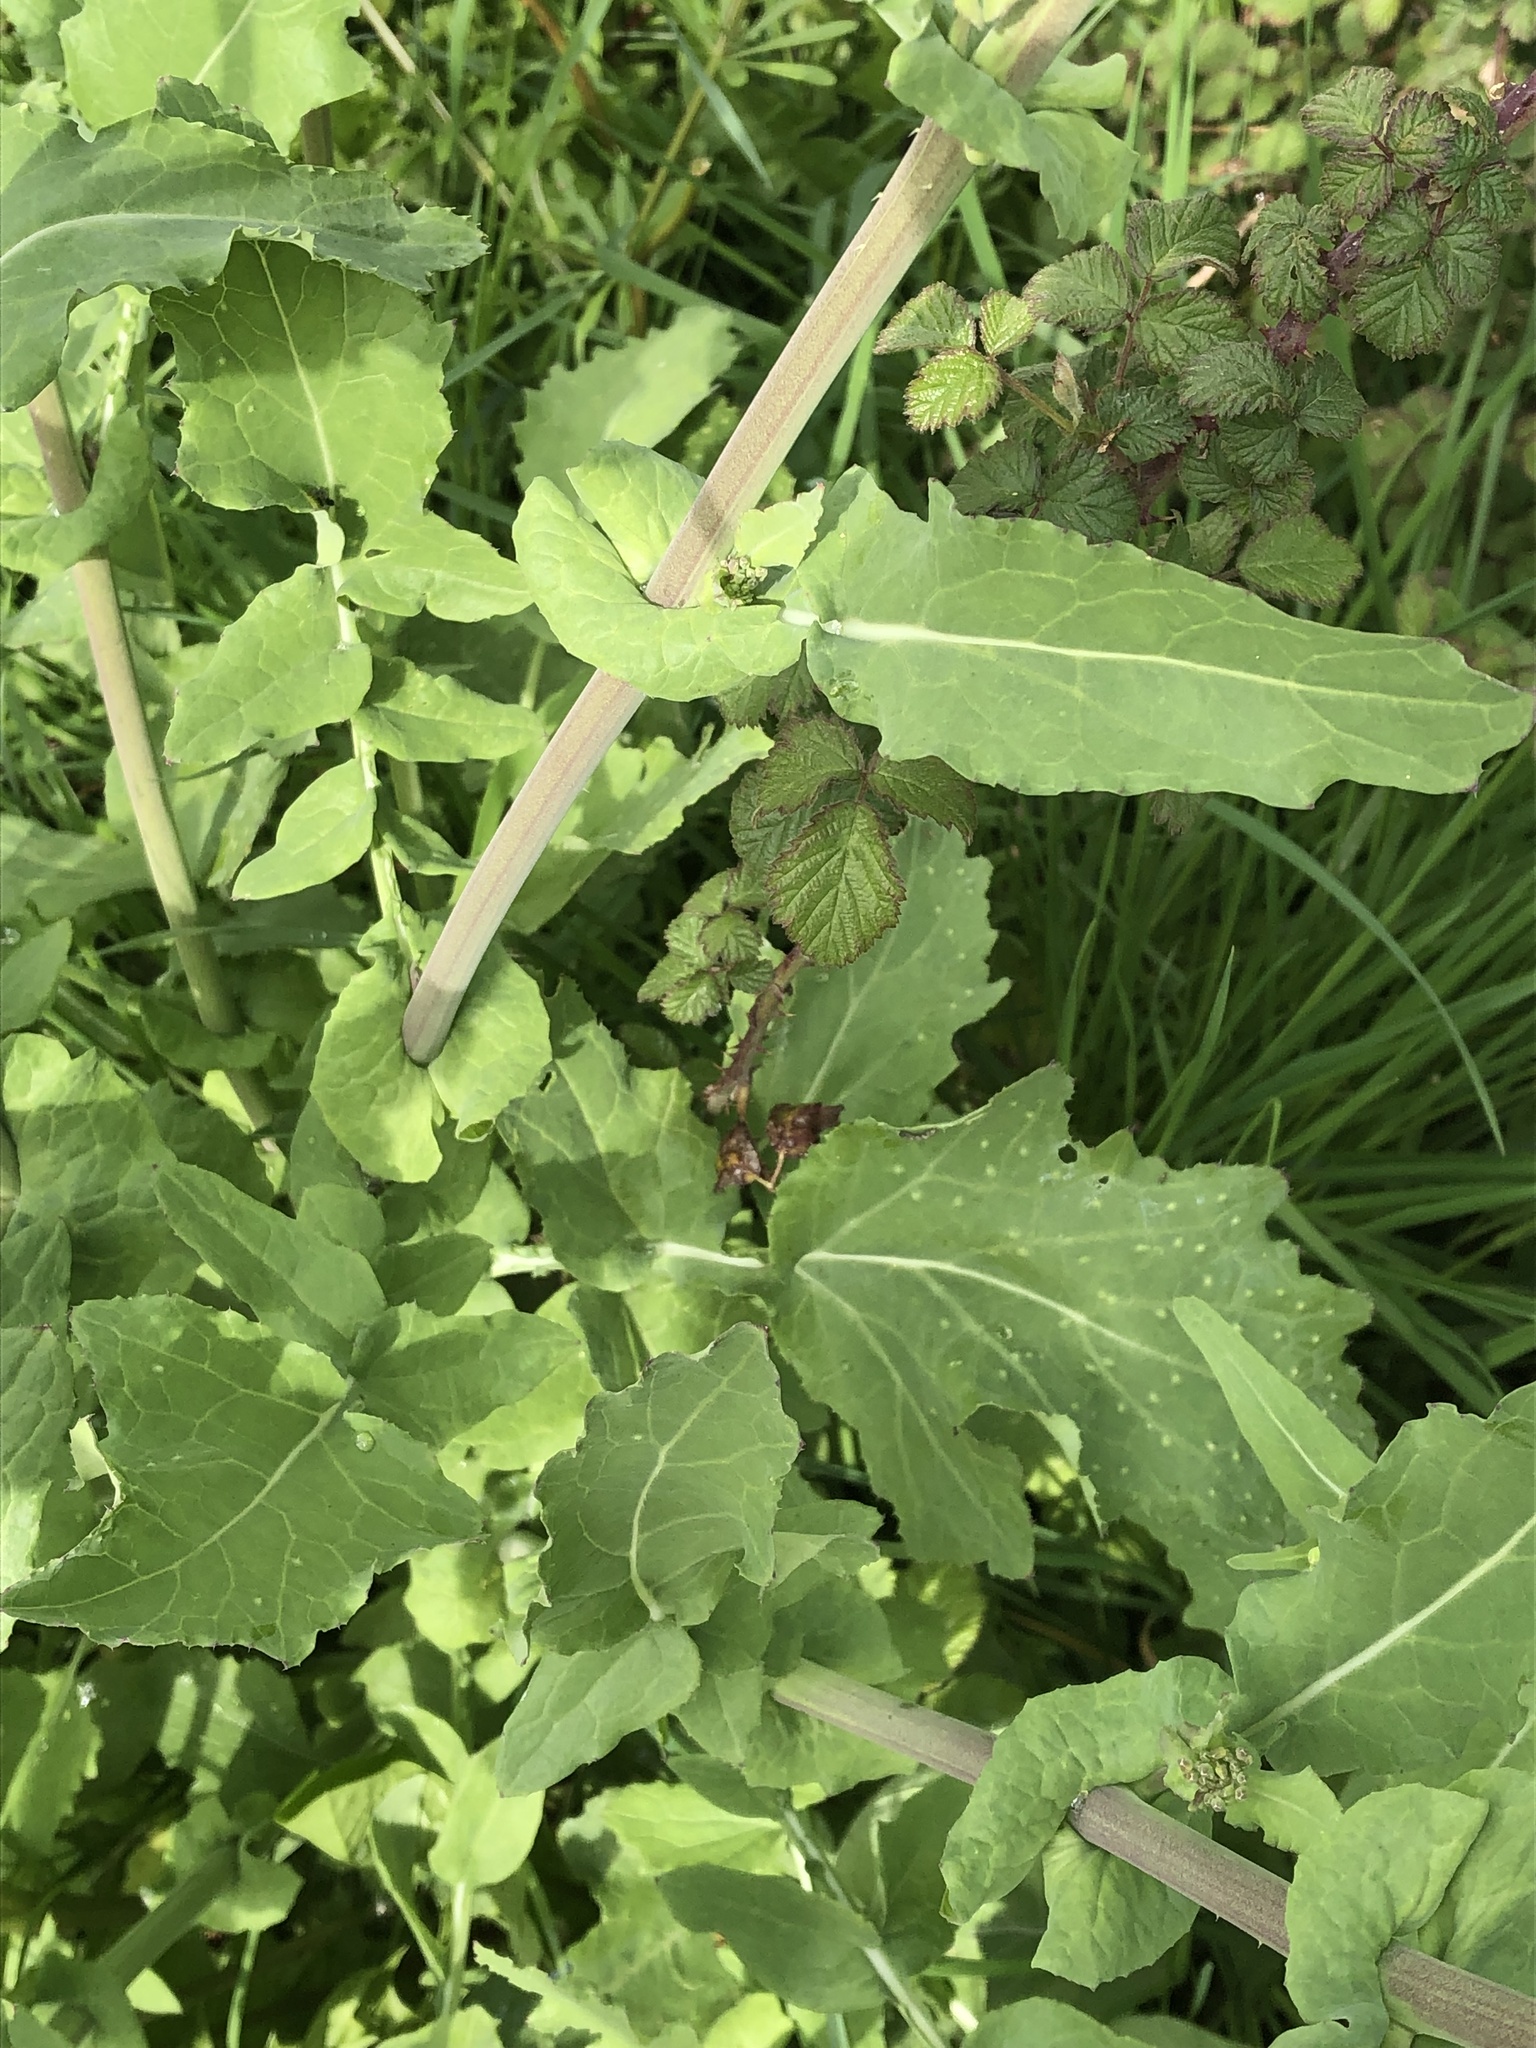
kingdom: Plantae
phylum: Tracheophyta
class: Magnoliopsida
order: Brassicales
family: Brassicaceae
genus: Brassica
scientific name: Brassica rapa
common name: Field mustard
